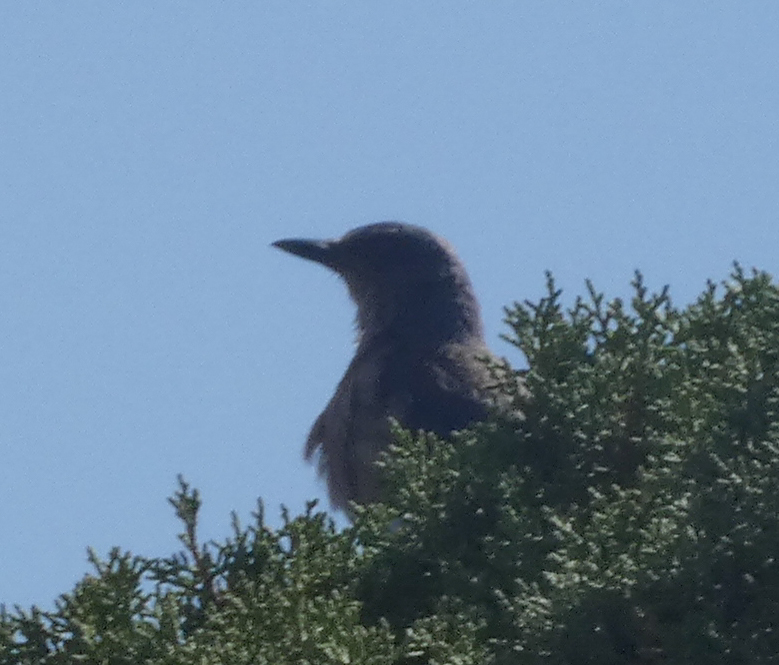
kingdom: Animalia
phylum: Chordata
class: Aves
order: Passeriformes
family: Corvidae
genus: Aphelocoma
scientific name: Aphelocoma woodhouseii
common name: Woodhouse's scrub-jay
